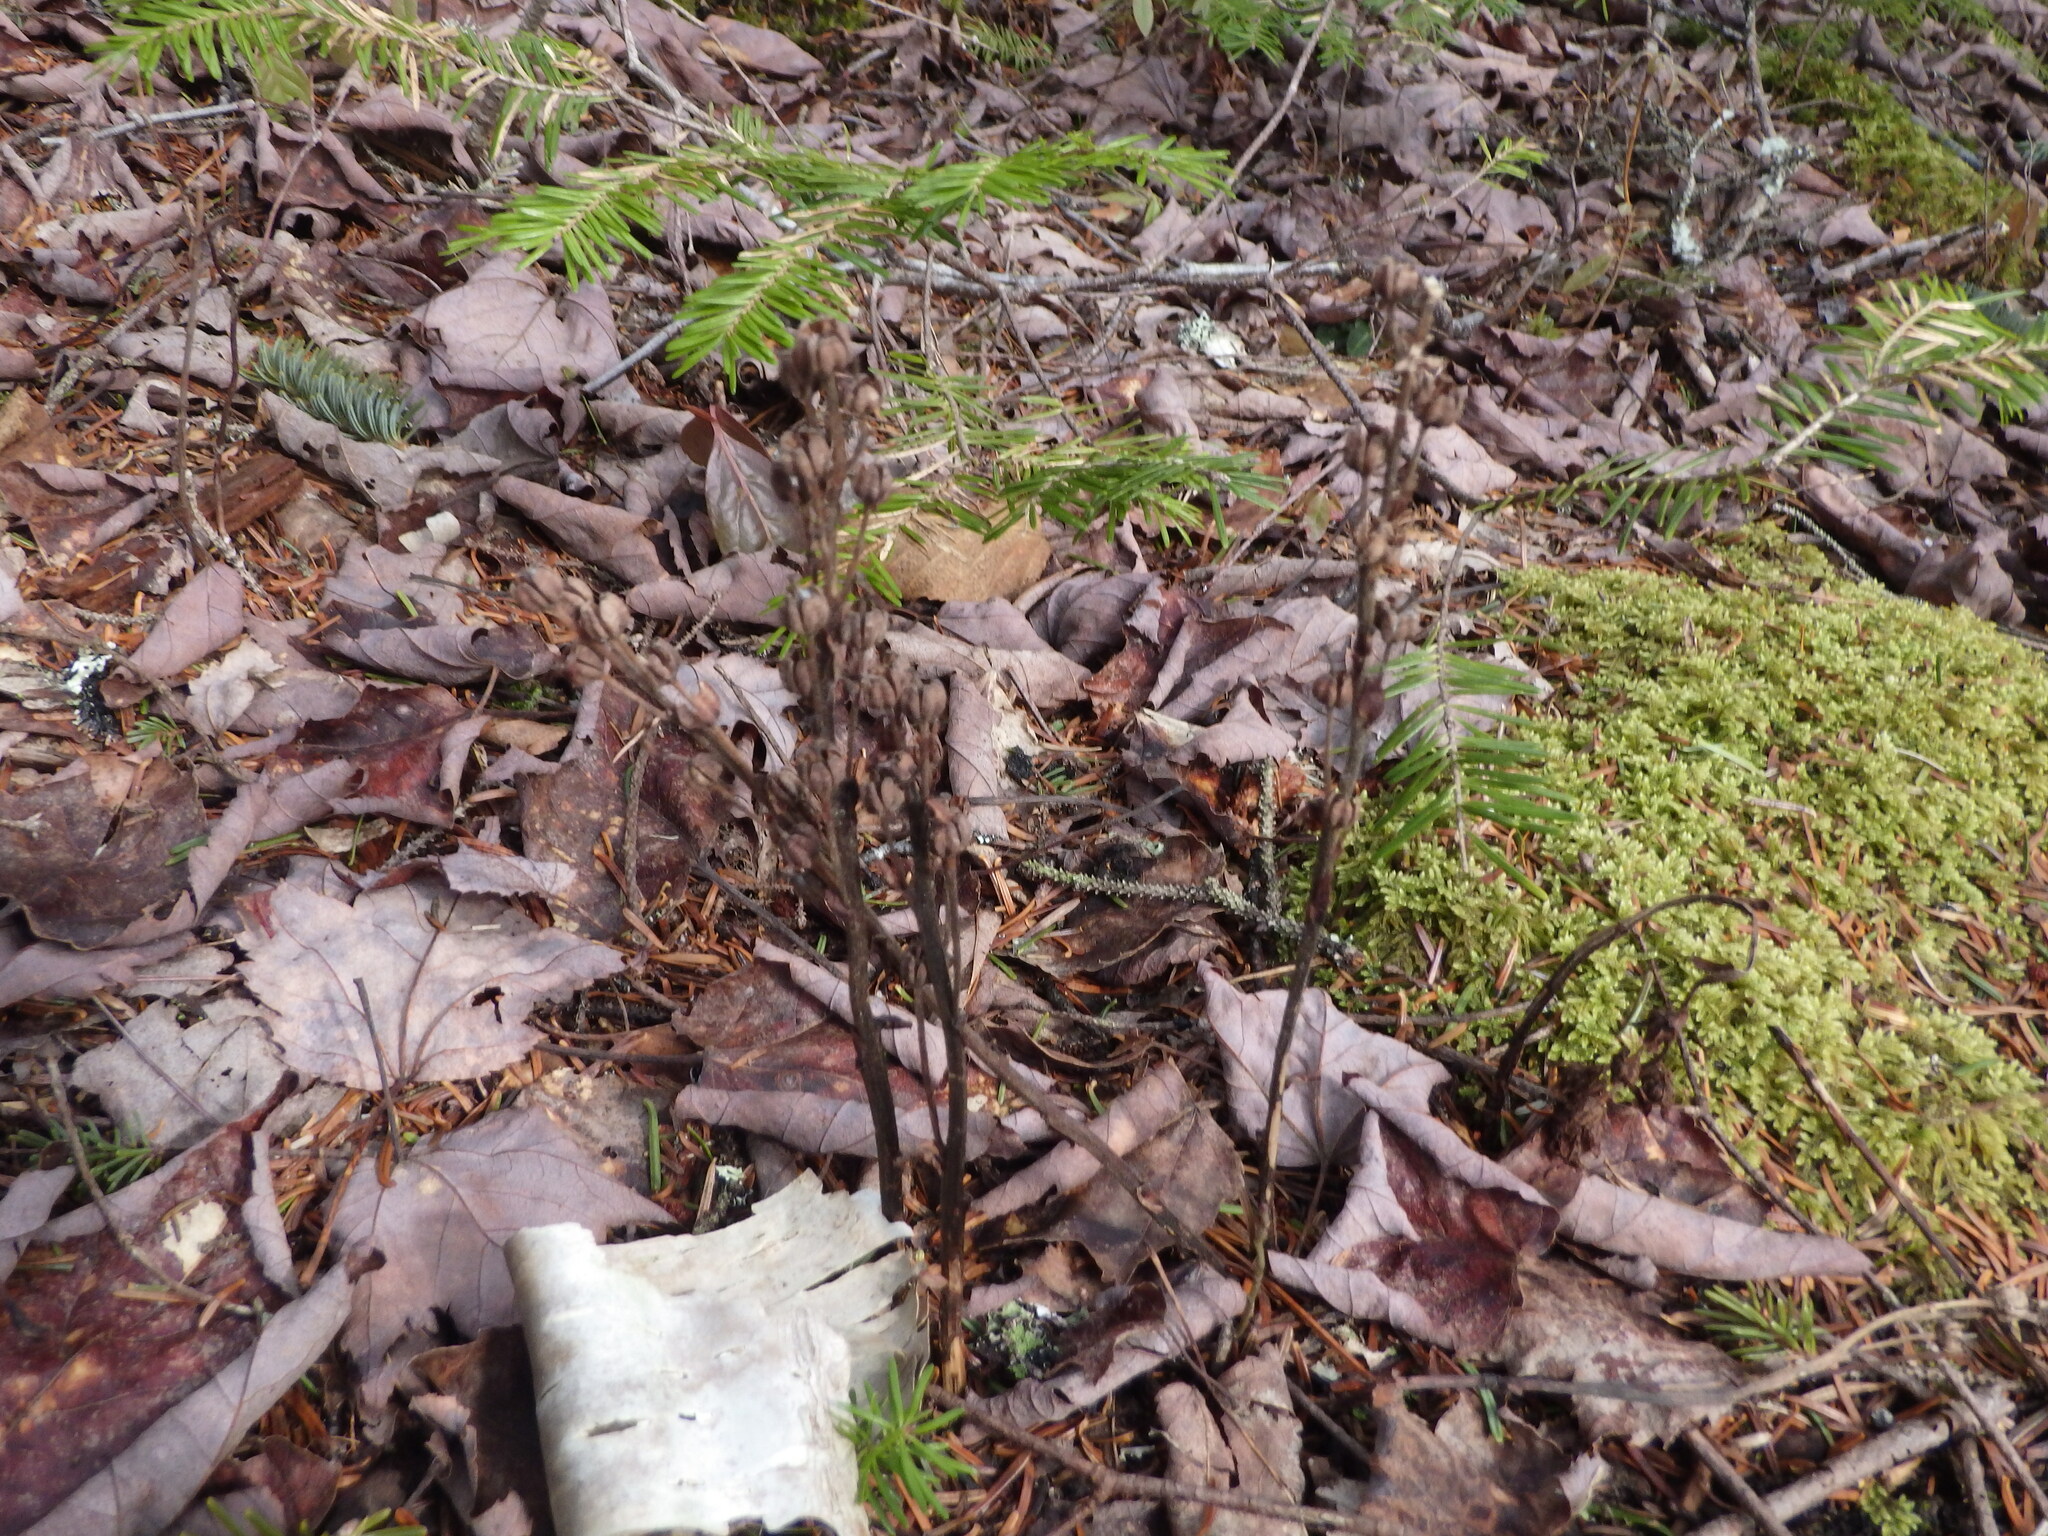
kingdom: Plantae
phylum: Tracheophyta
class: Magnoliopsida
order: Ericales
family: Ericaceae
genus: Hypopitys
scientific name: Hypopitys monotropa
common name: Yellow bird's-nest
